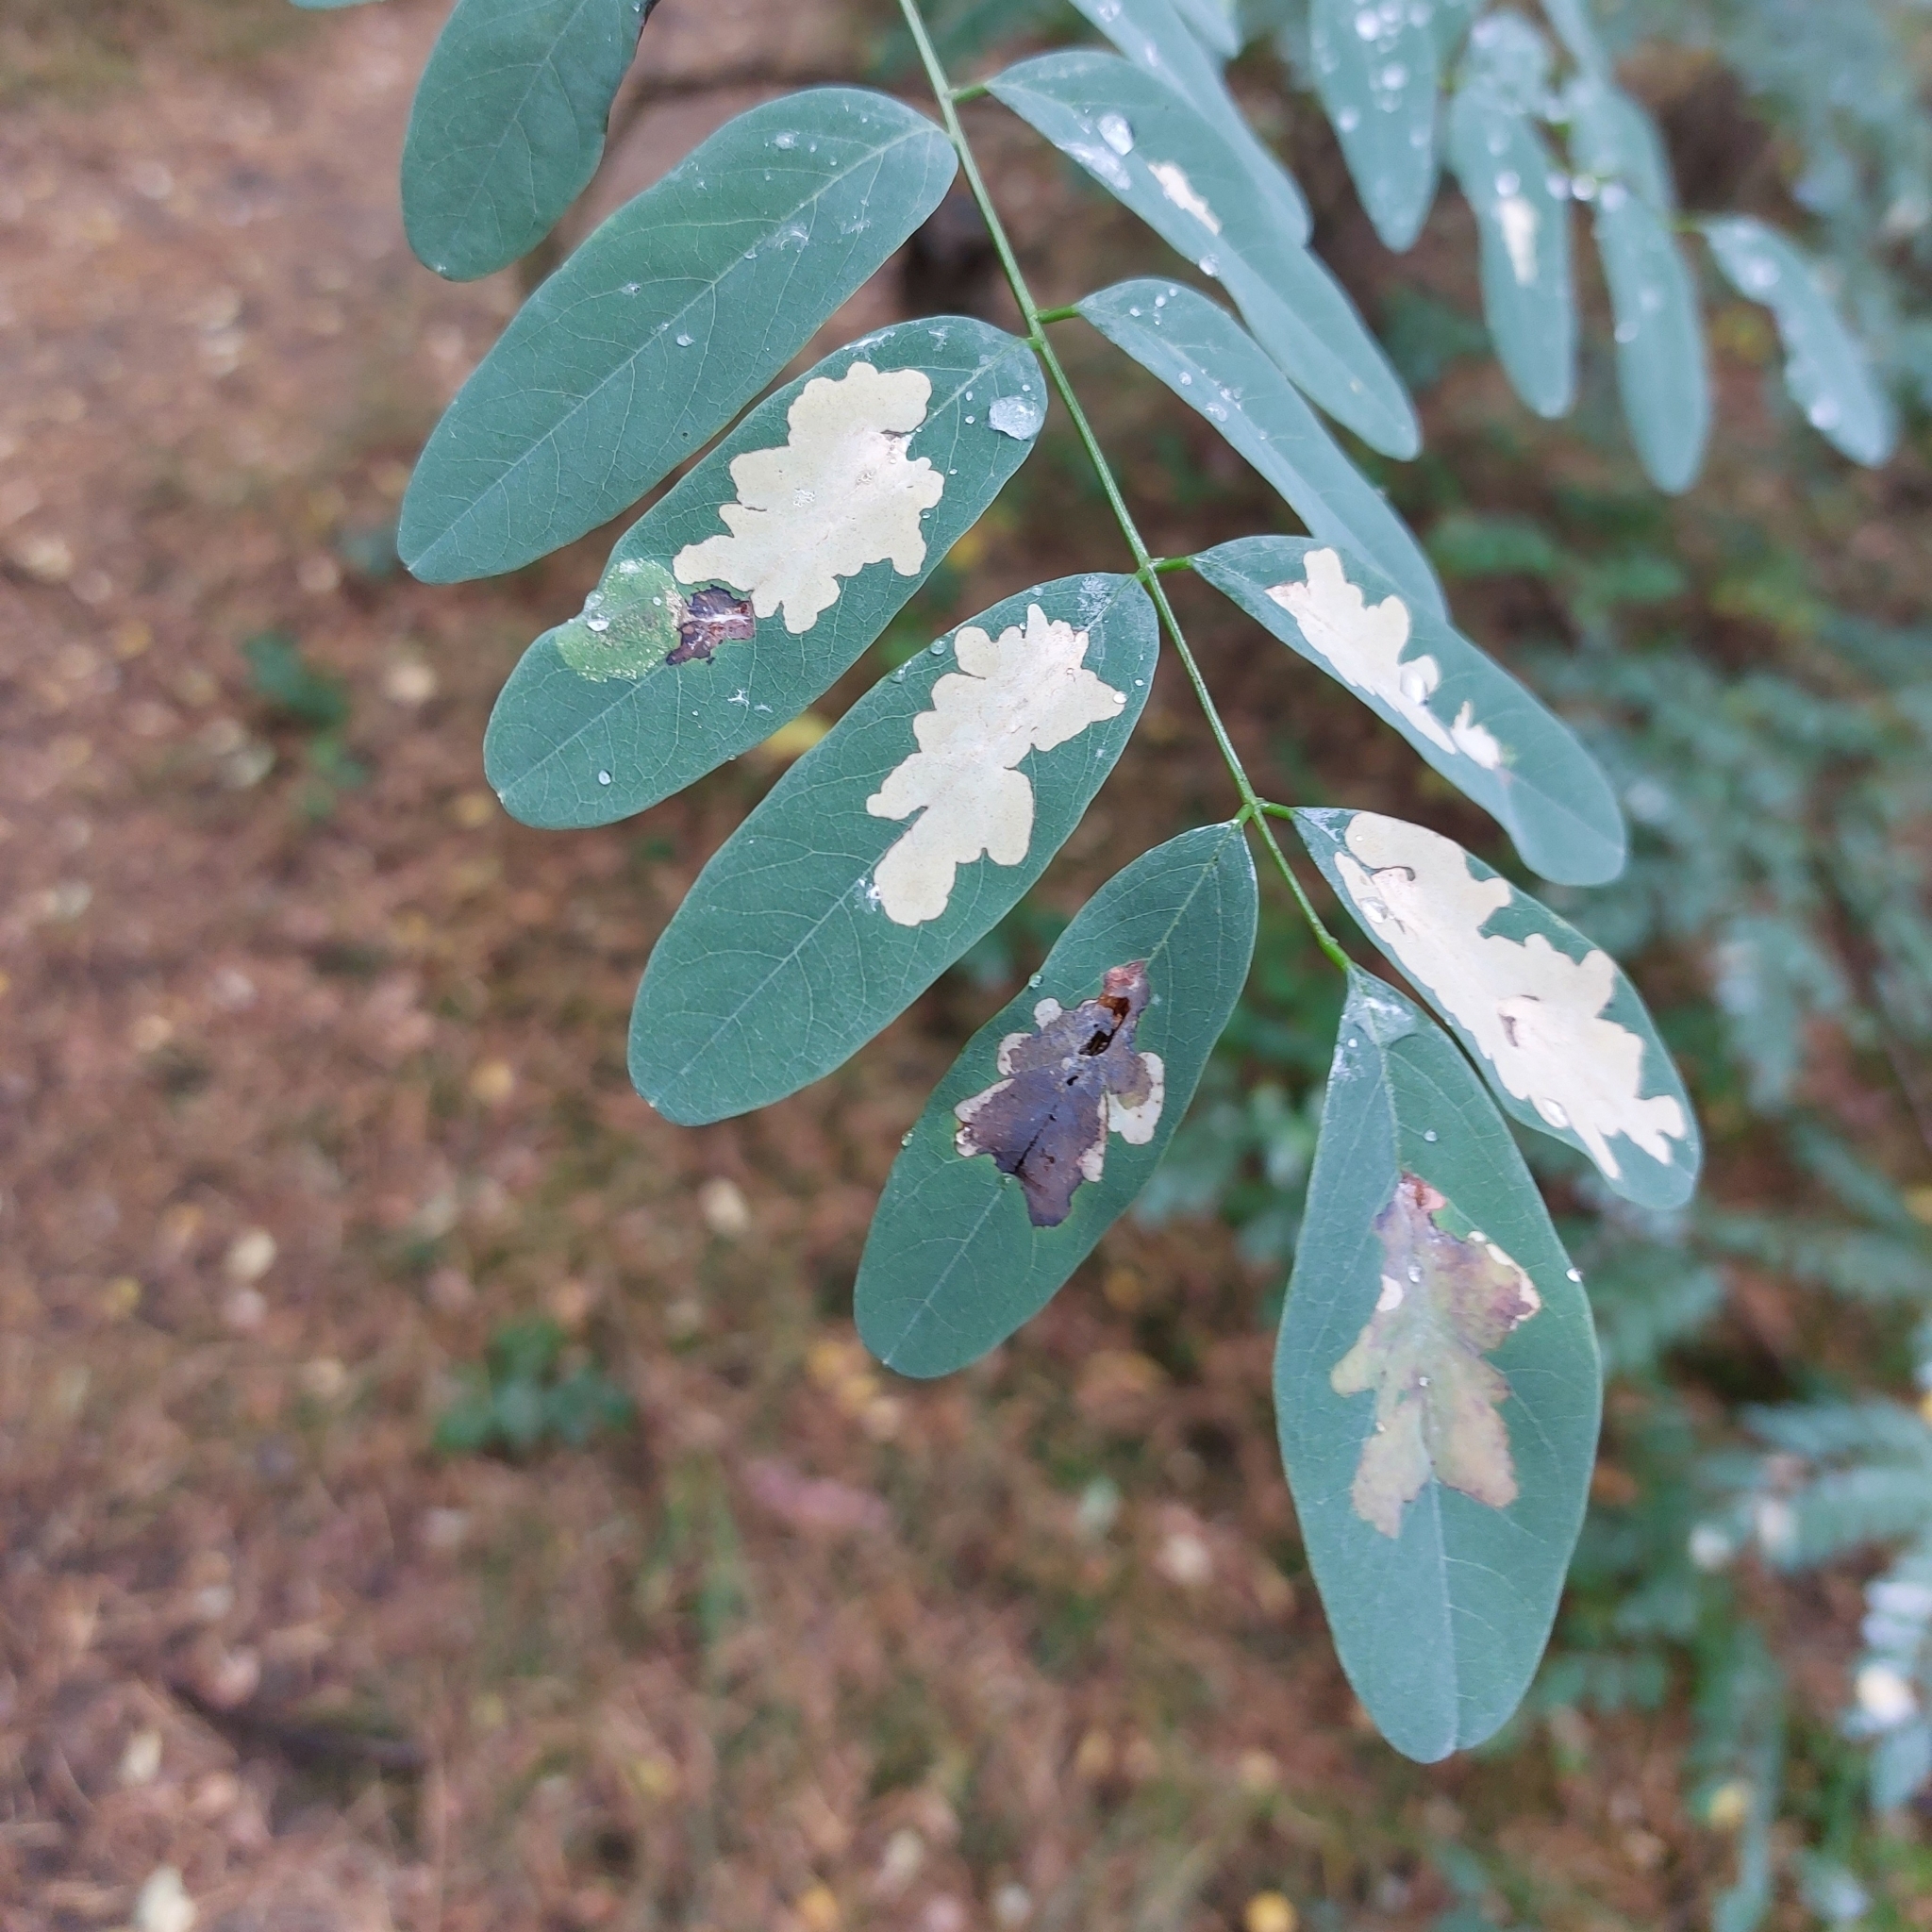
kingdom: Animalia
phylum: Arthropoda
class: Insecta
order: Lepidoptera
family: Gracillariidae
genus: Parectopa
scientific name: Parectopa robiniella
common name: Locust digitate leafminer
